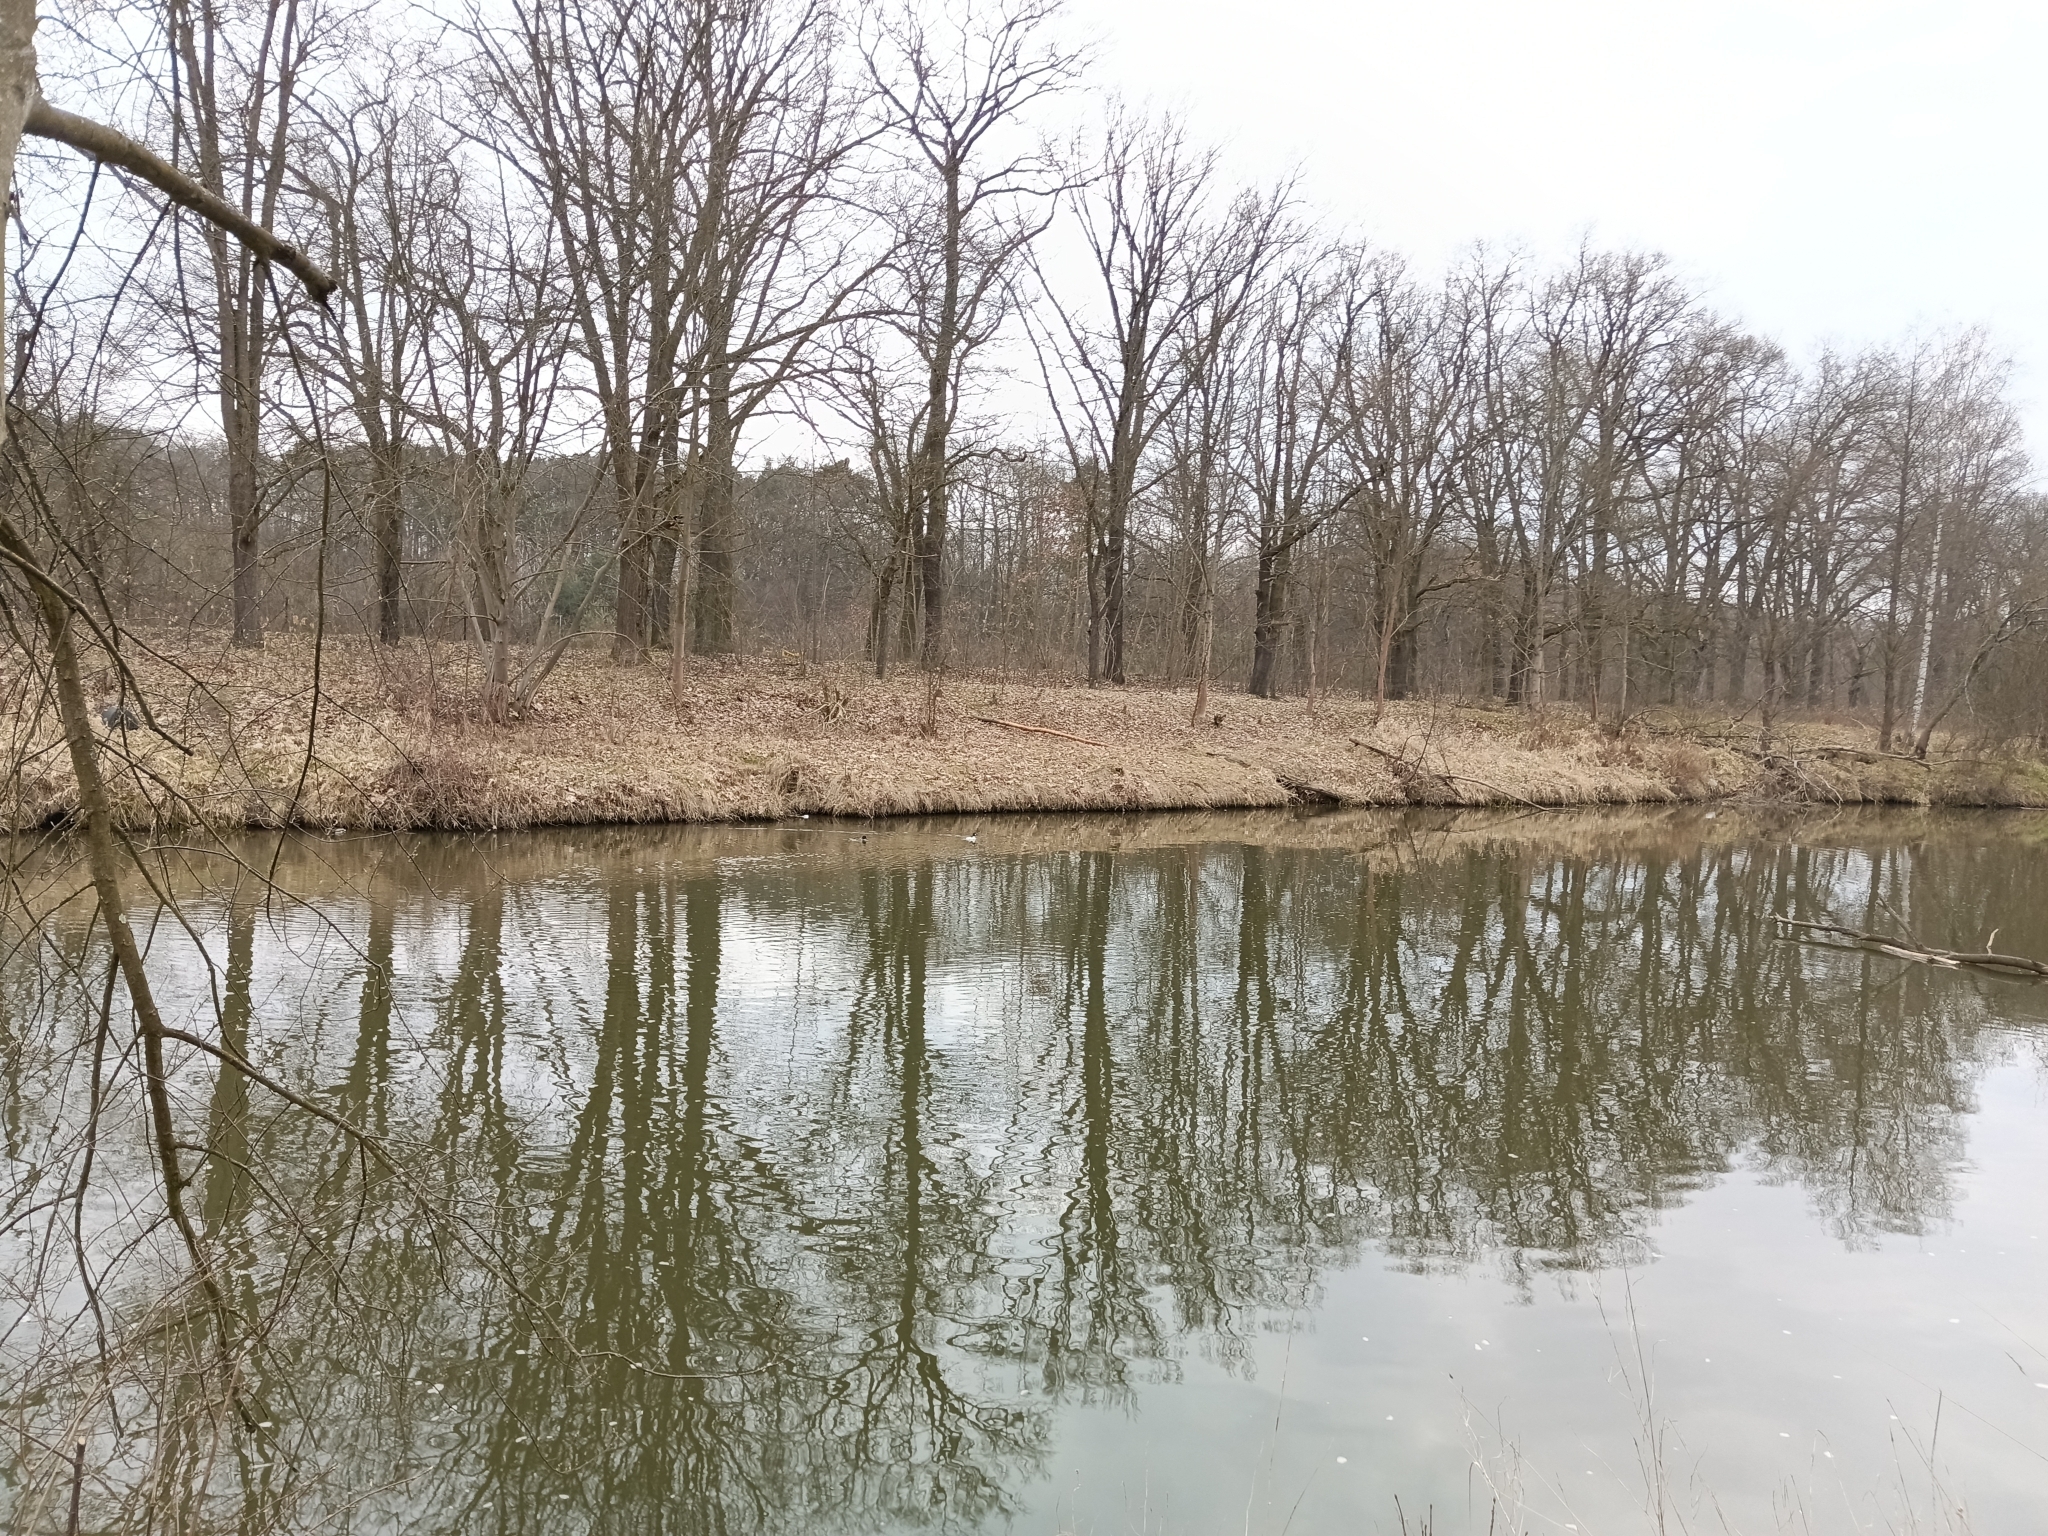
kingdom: Animalia
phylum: Chordata
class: Aves
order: Anseriformes
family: Anatidae
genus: Bucephala
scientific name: Bucephala clangula
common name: Common goldeneye
